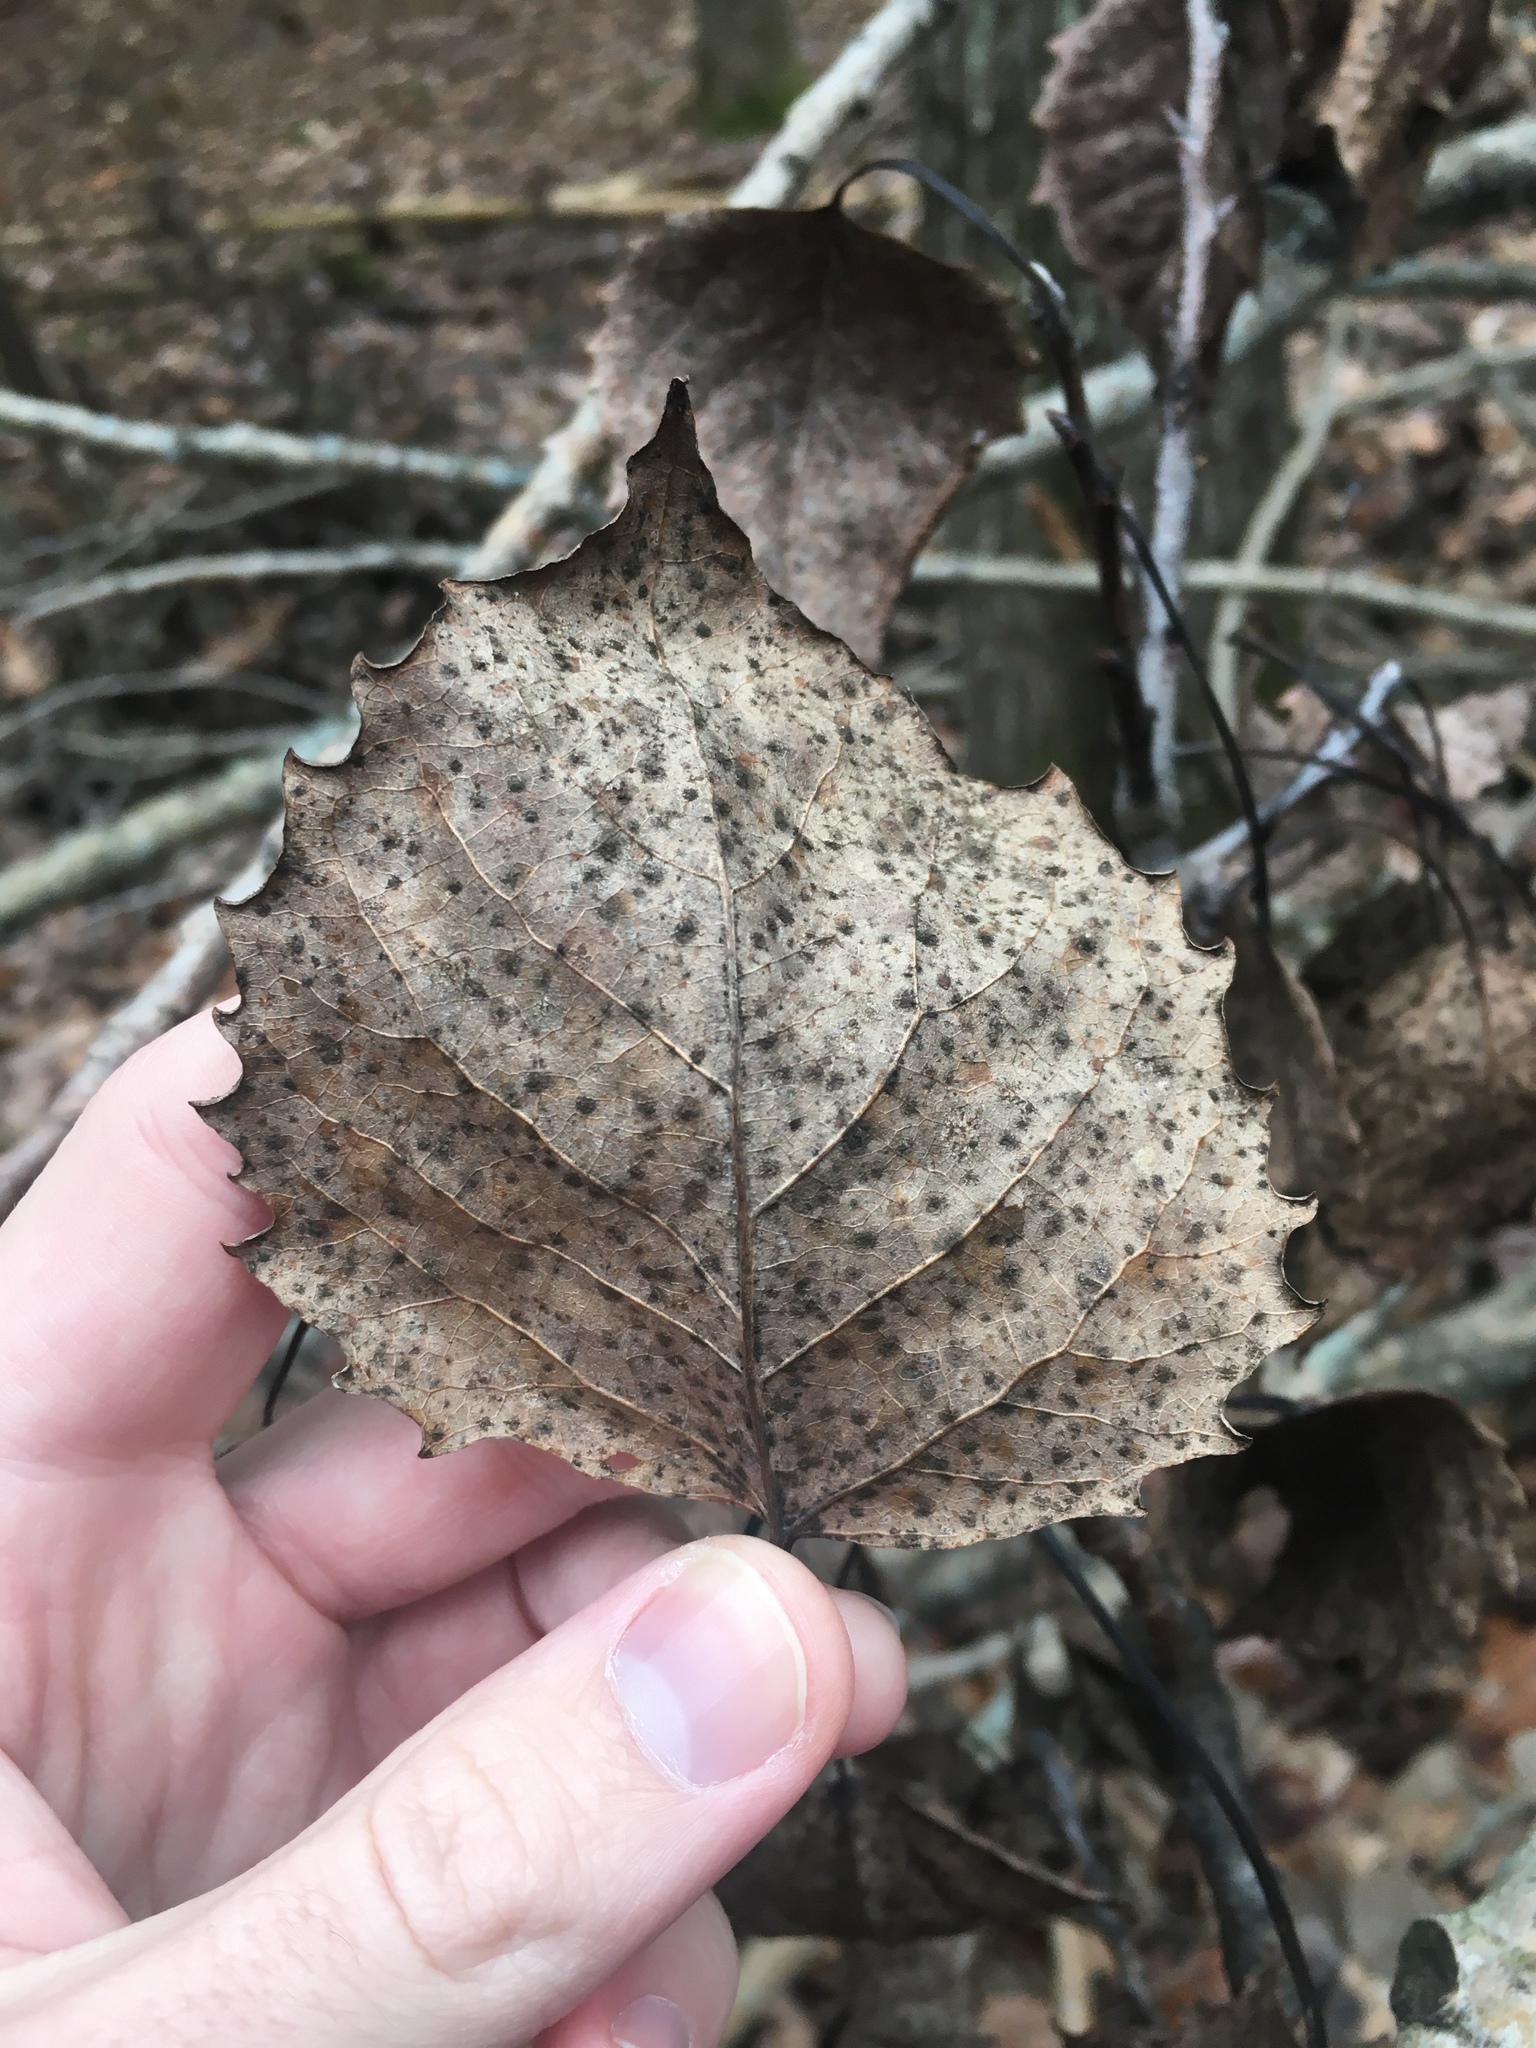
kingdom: Plantae
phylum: Tracheophyta
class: Magnoliopsida
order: Malpighiales
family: Salicaceae
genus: Populus
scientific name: Populus grandidentata
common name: Bigtooth aspen
